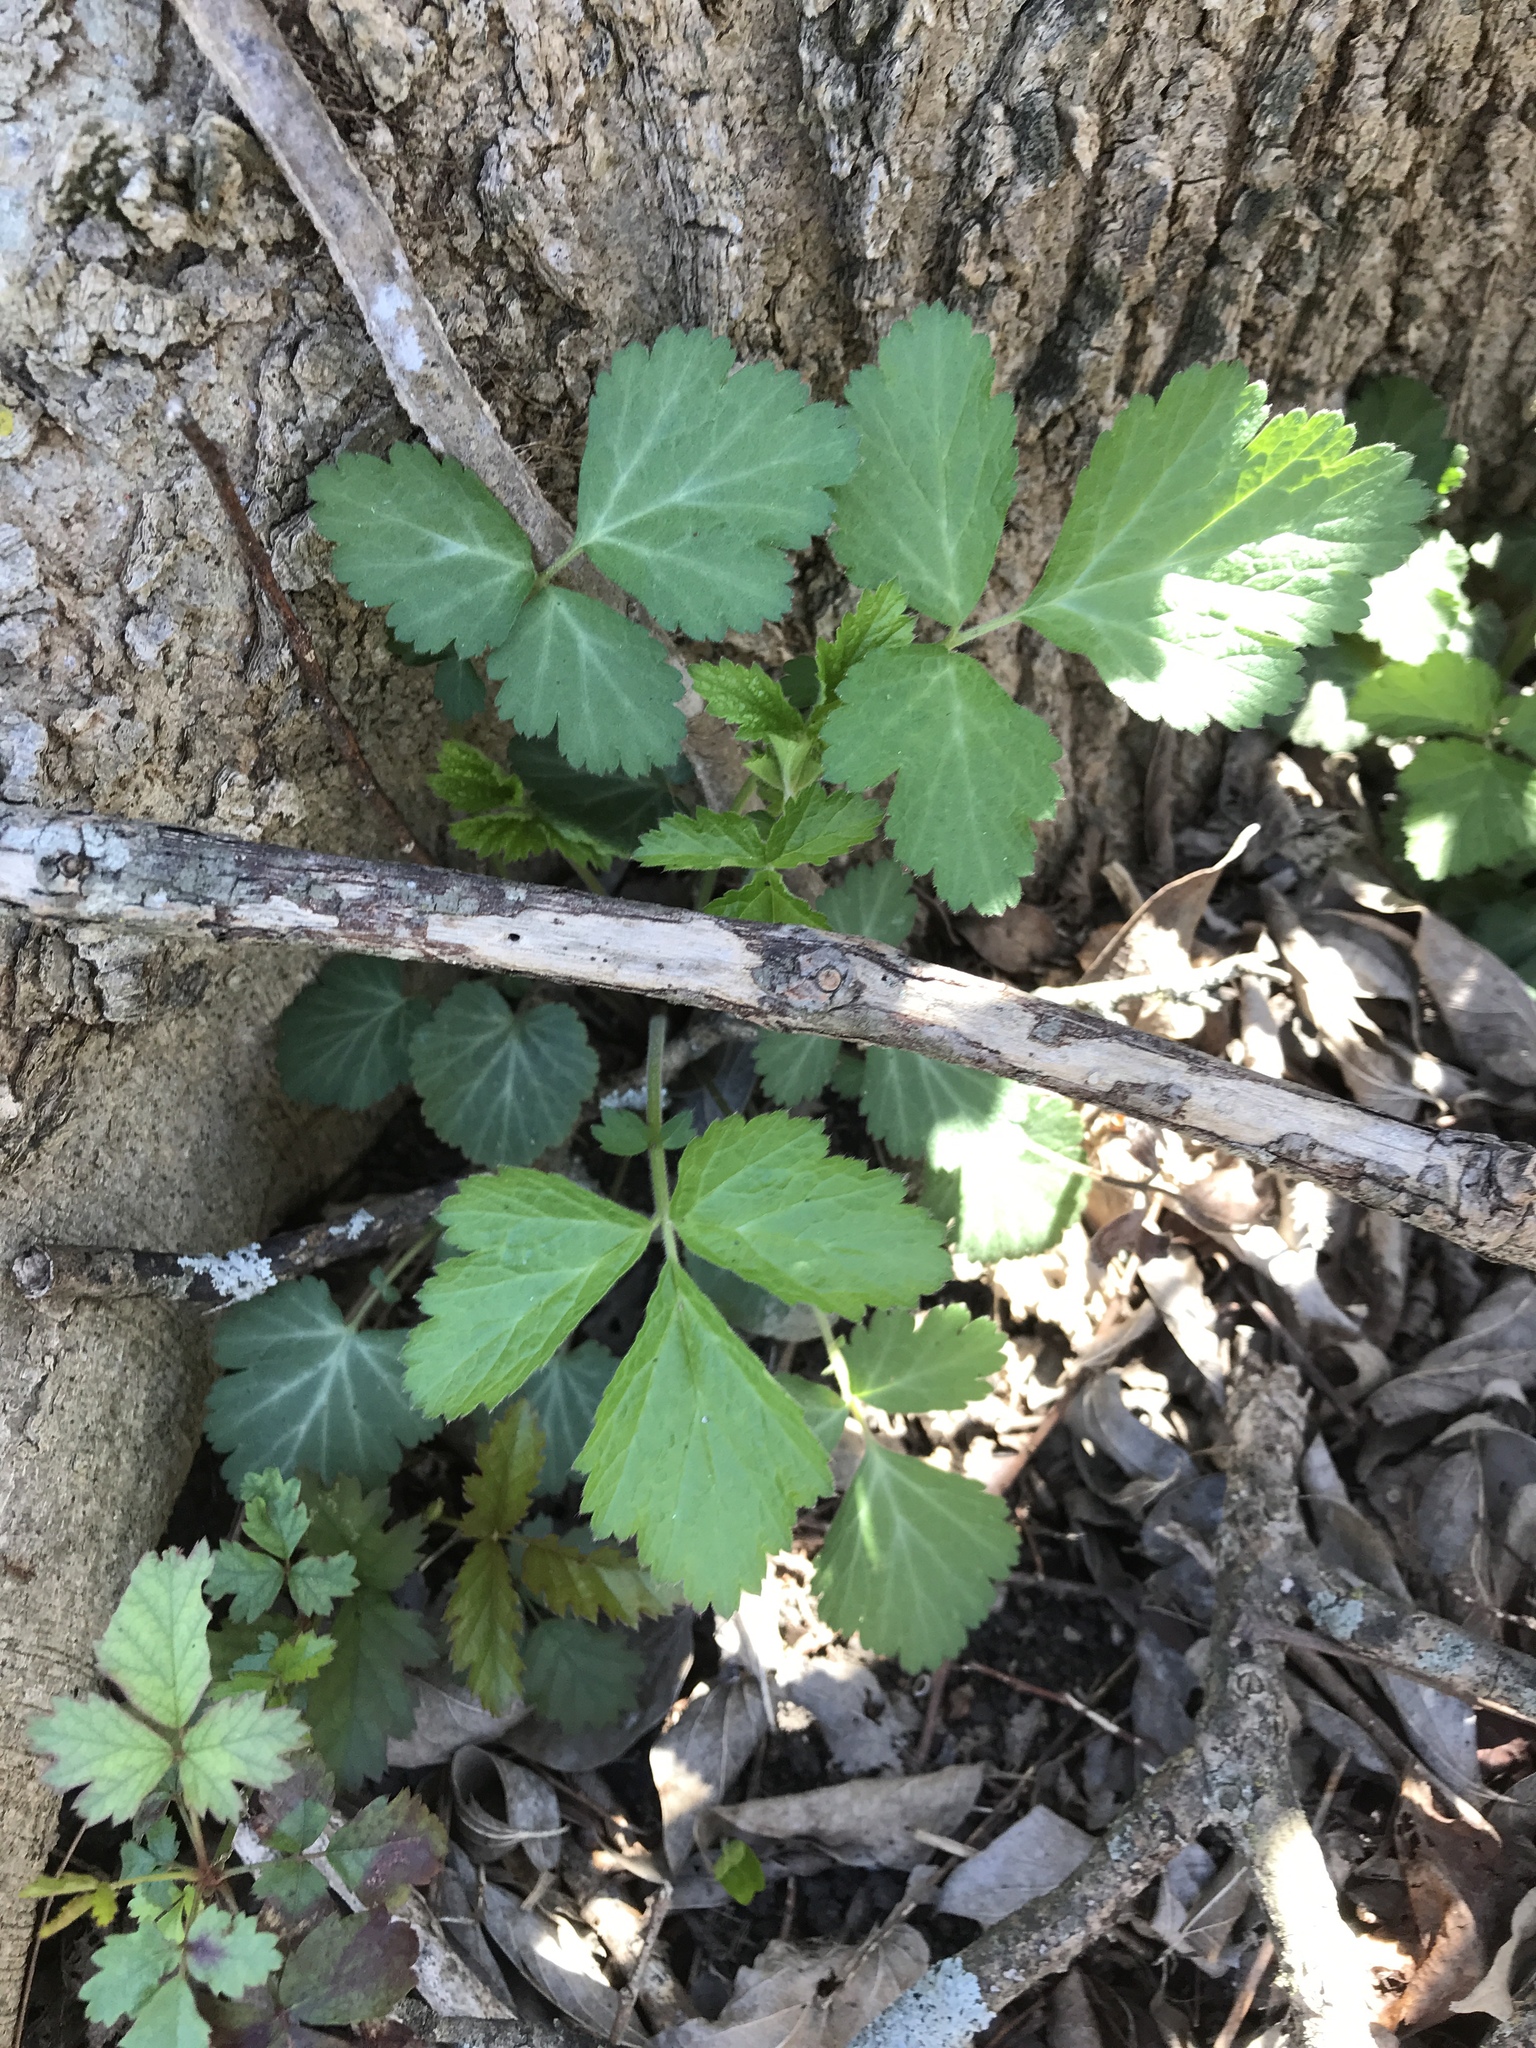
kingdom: Plantae
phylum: Tracheophyta
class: Magnoliopsida
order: Rosales
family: Rosaceae
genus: Geum
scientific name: Geum canadense
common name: White avens
